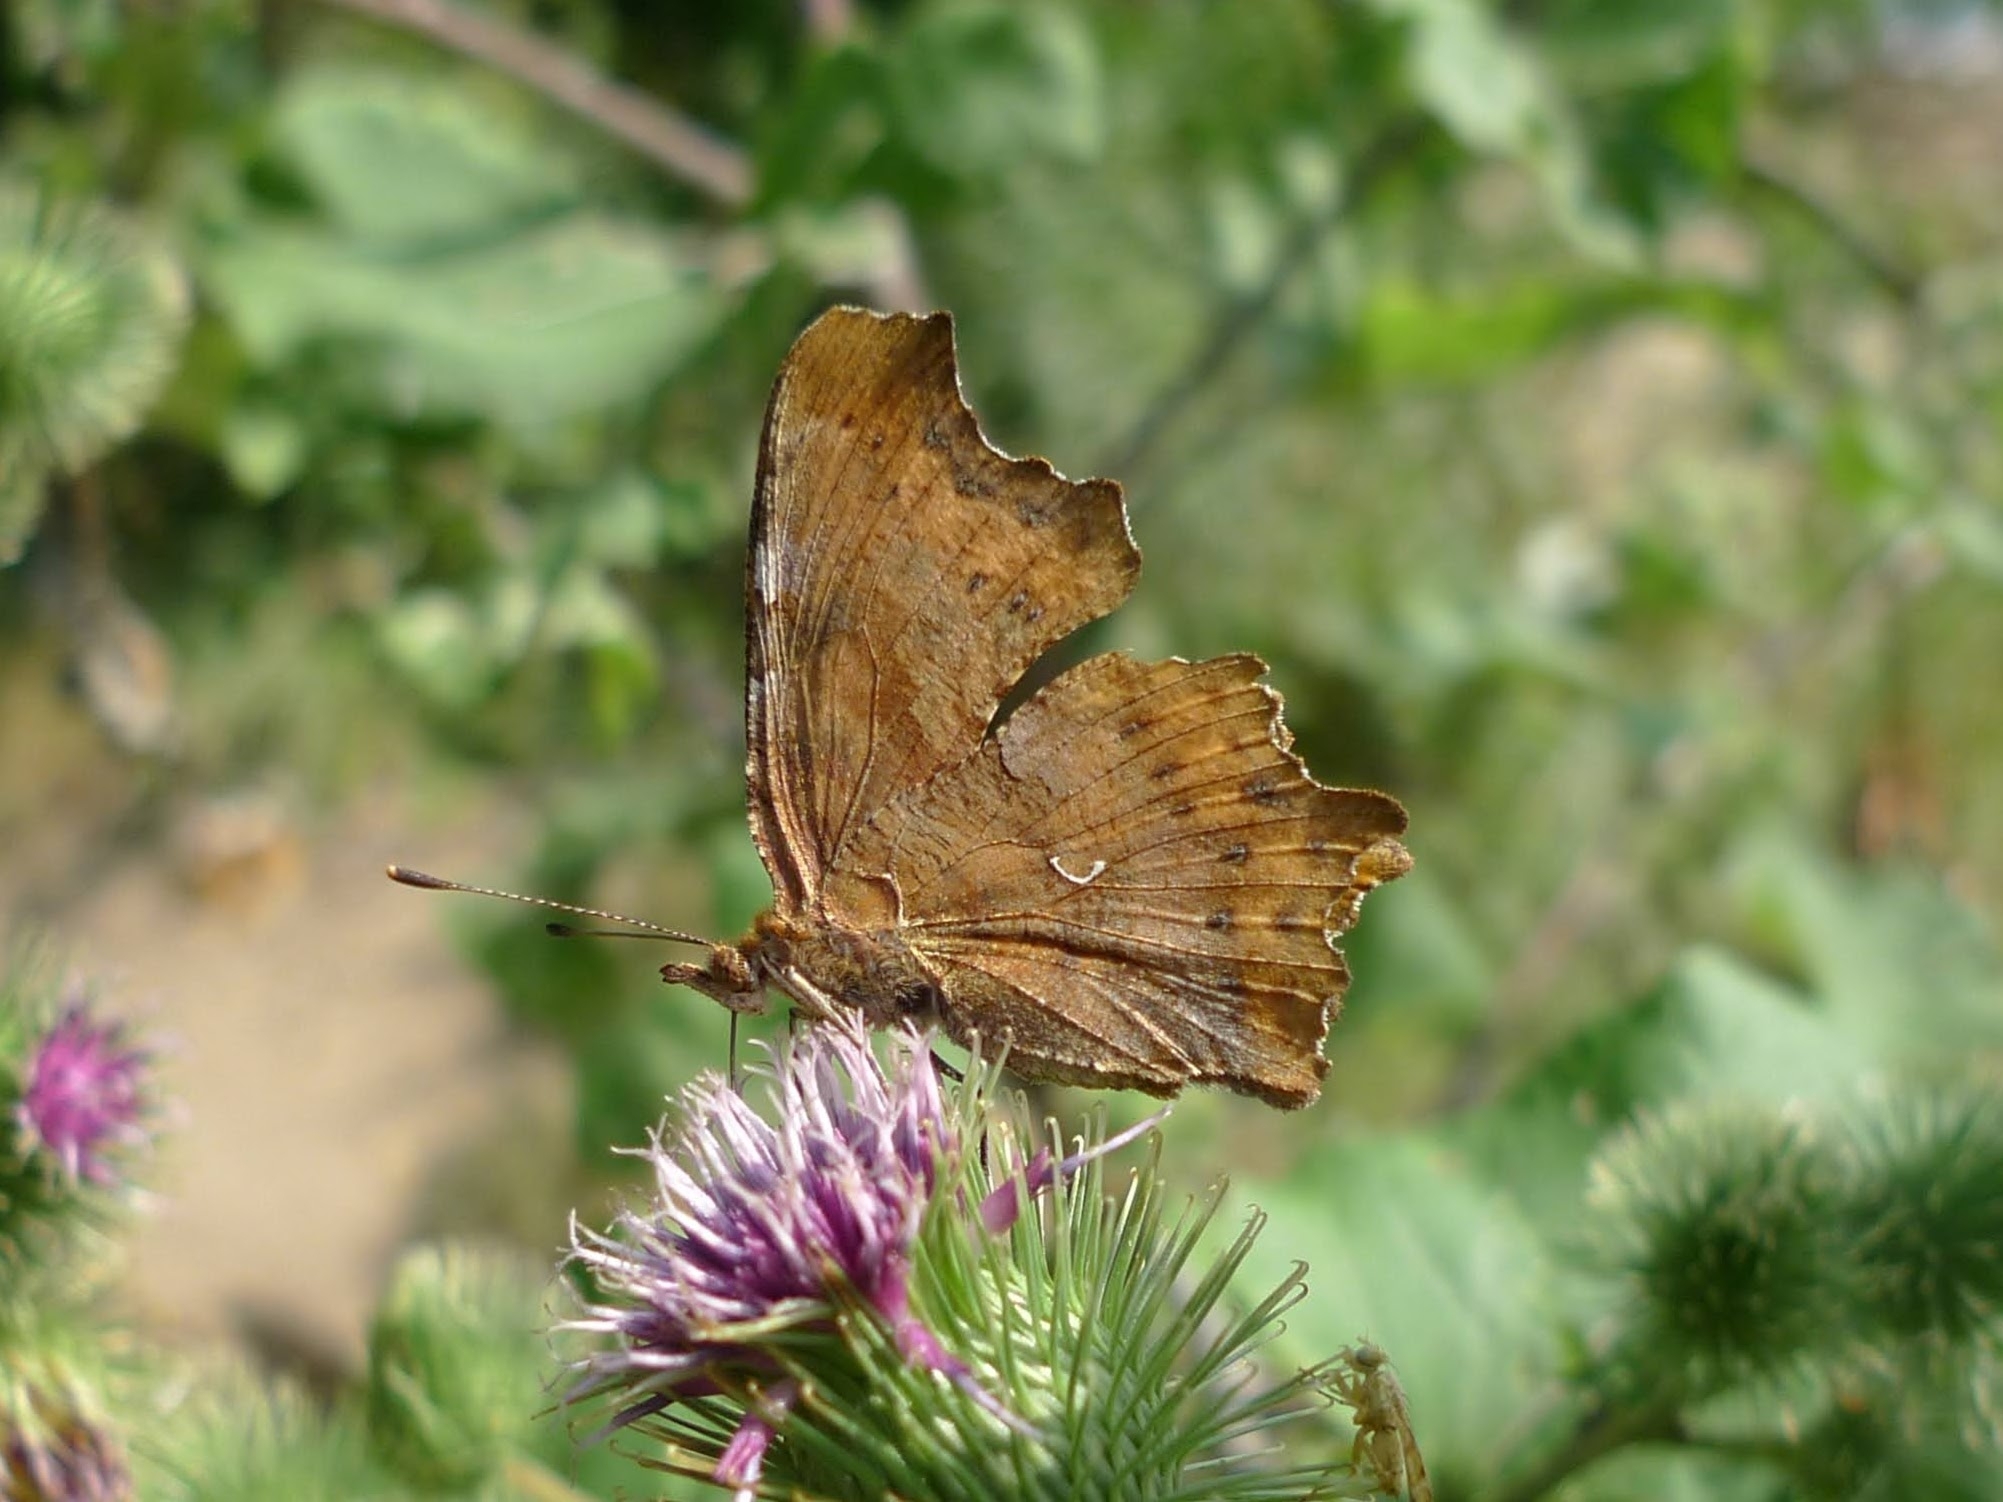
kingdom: Animalia
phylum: Arthropoda
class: Insecta
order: Lepidoptera
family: Nymphalidae
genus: Polygonia
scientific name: Polygonia c-album
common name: Comma
